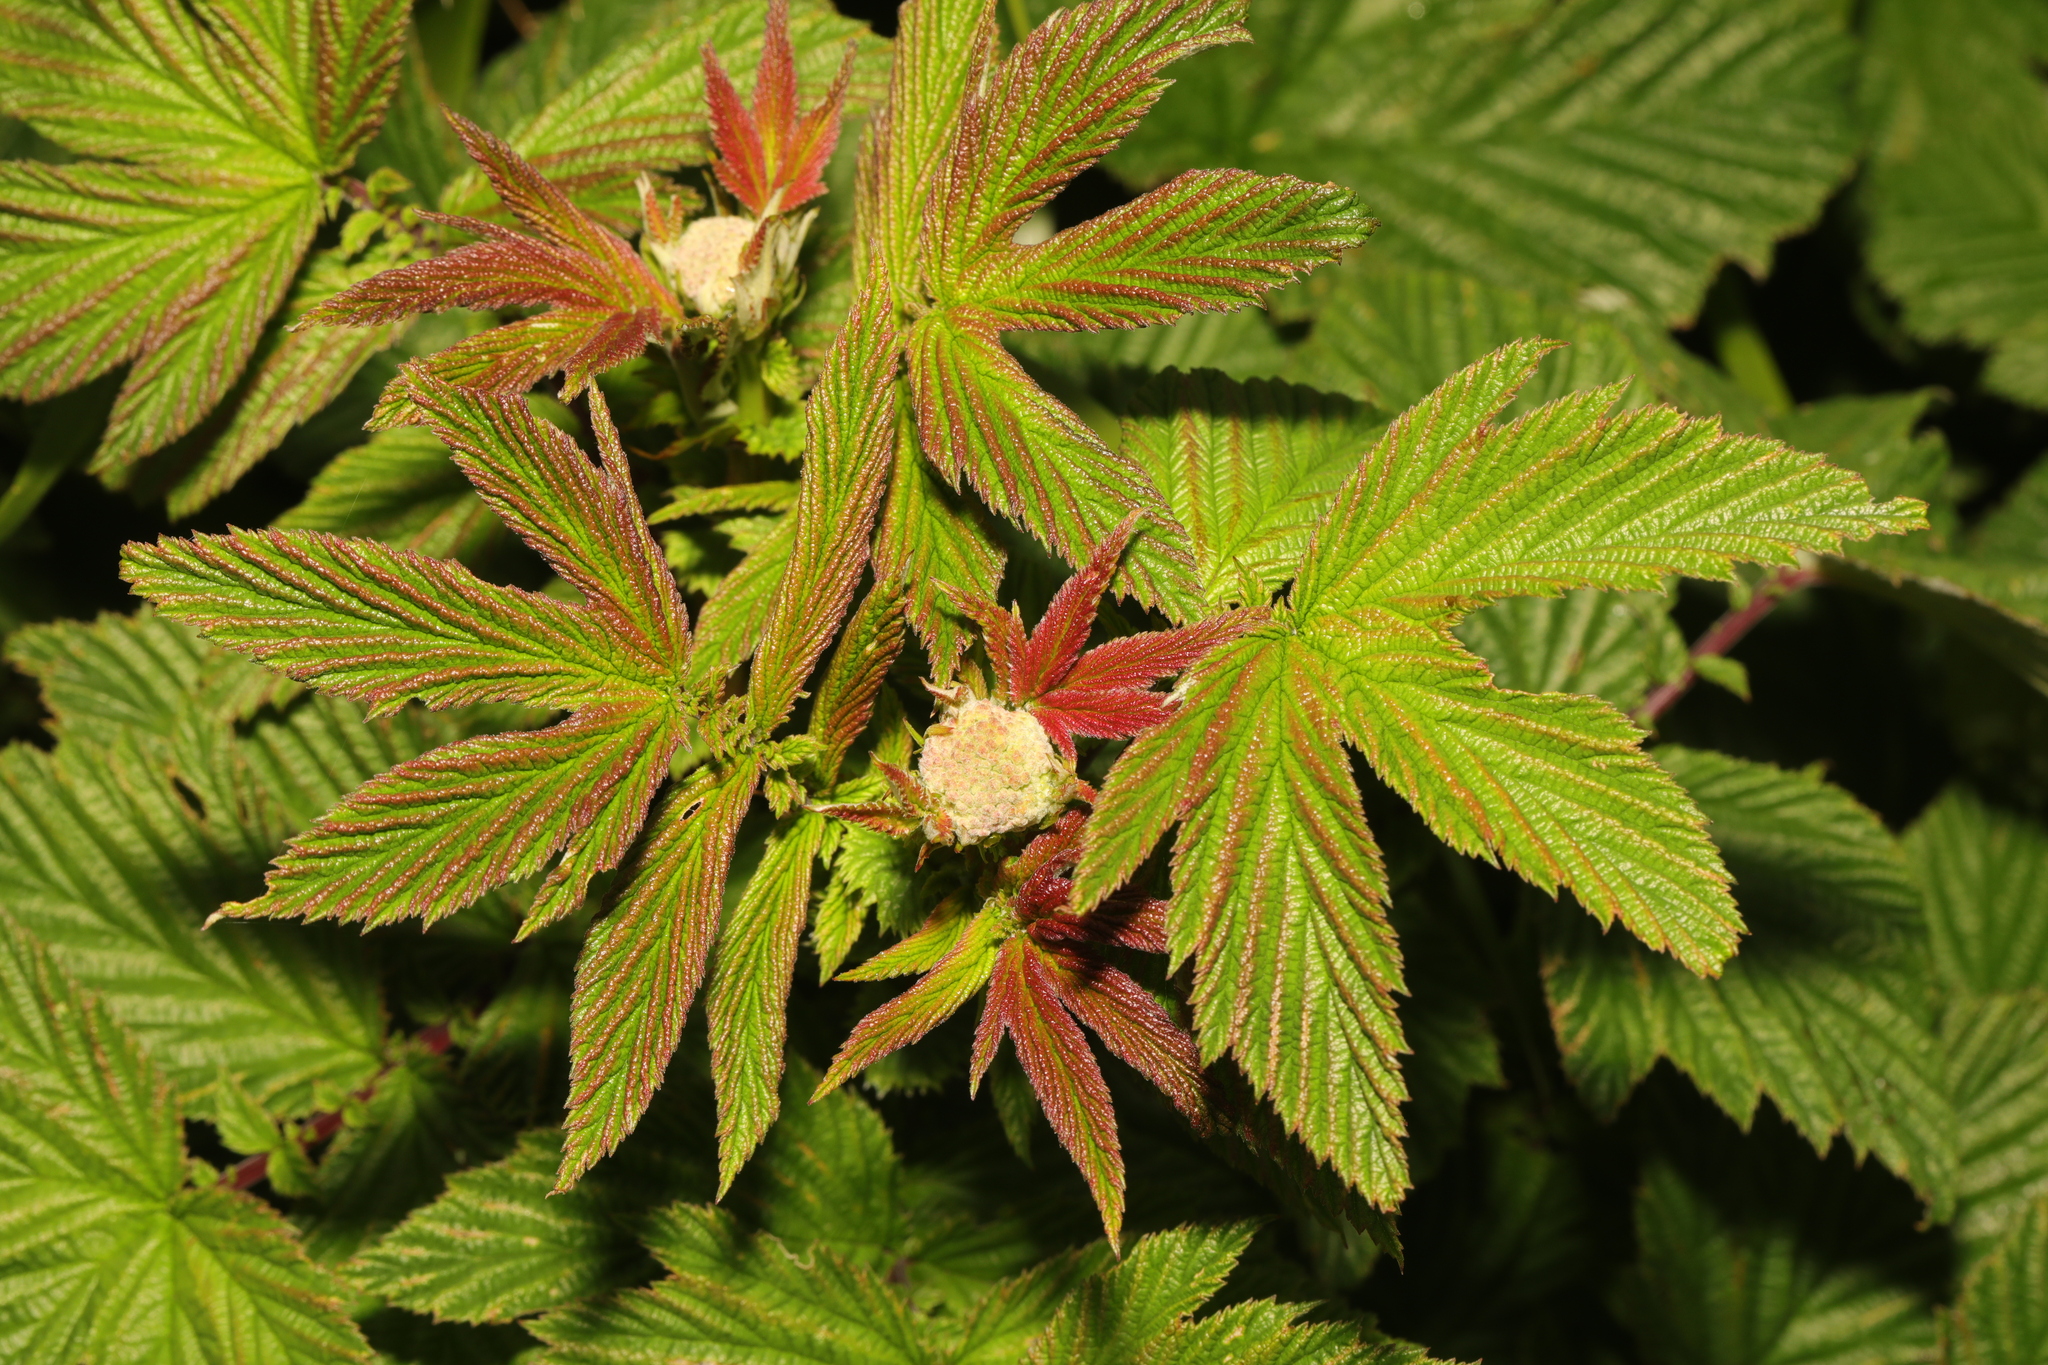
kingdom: Plantae
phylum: Tracheophyta
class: Magnoliopsida
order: Rosales
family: Rosaceae
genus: Filipendula
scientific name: Filipendula ulmaria
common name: Meadowsweet
